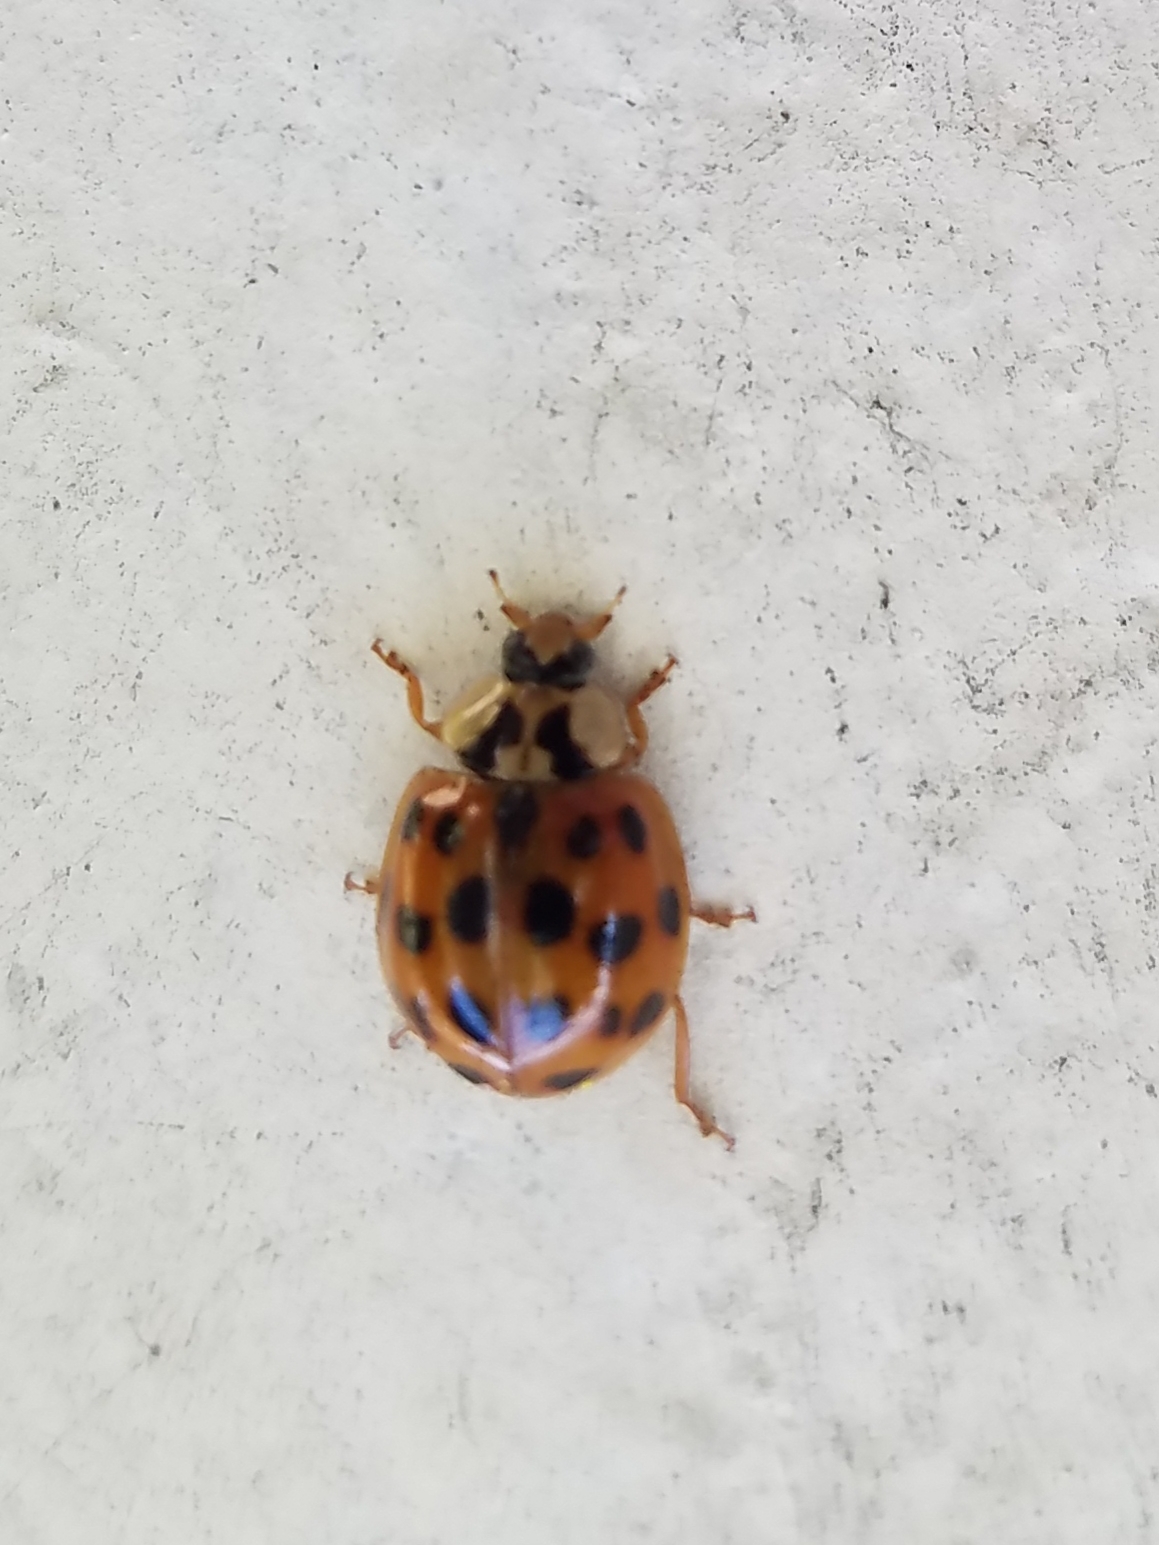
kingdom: Animalia
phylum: Arthropoda
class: Insecta
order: Coleoptera
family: Coccinellidae
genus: Harmonia
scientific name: Harmonia axyridis
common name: Harlequin ladybird
